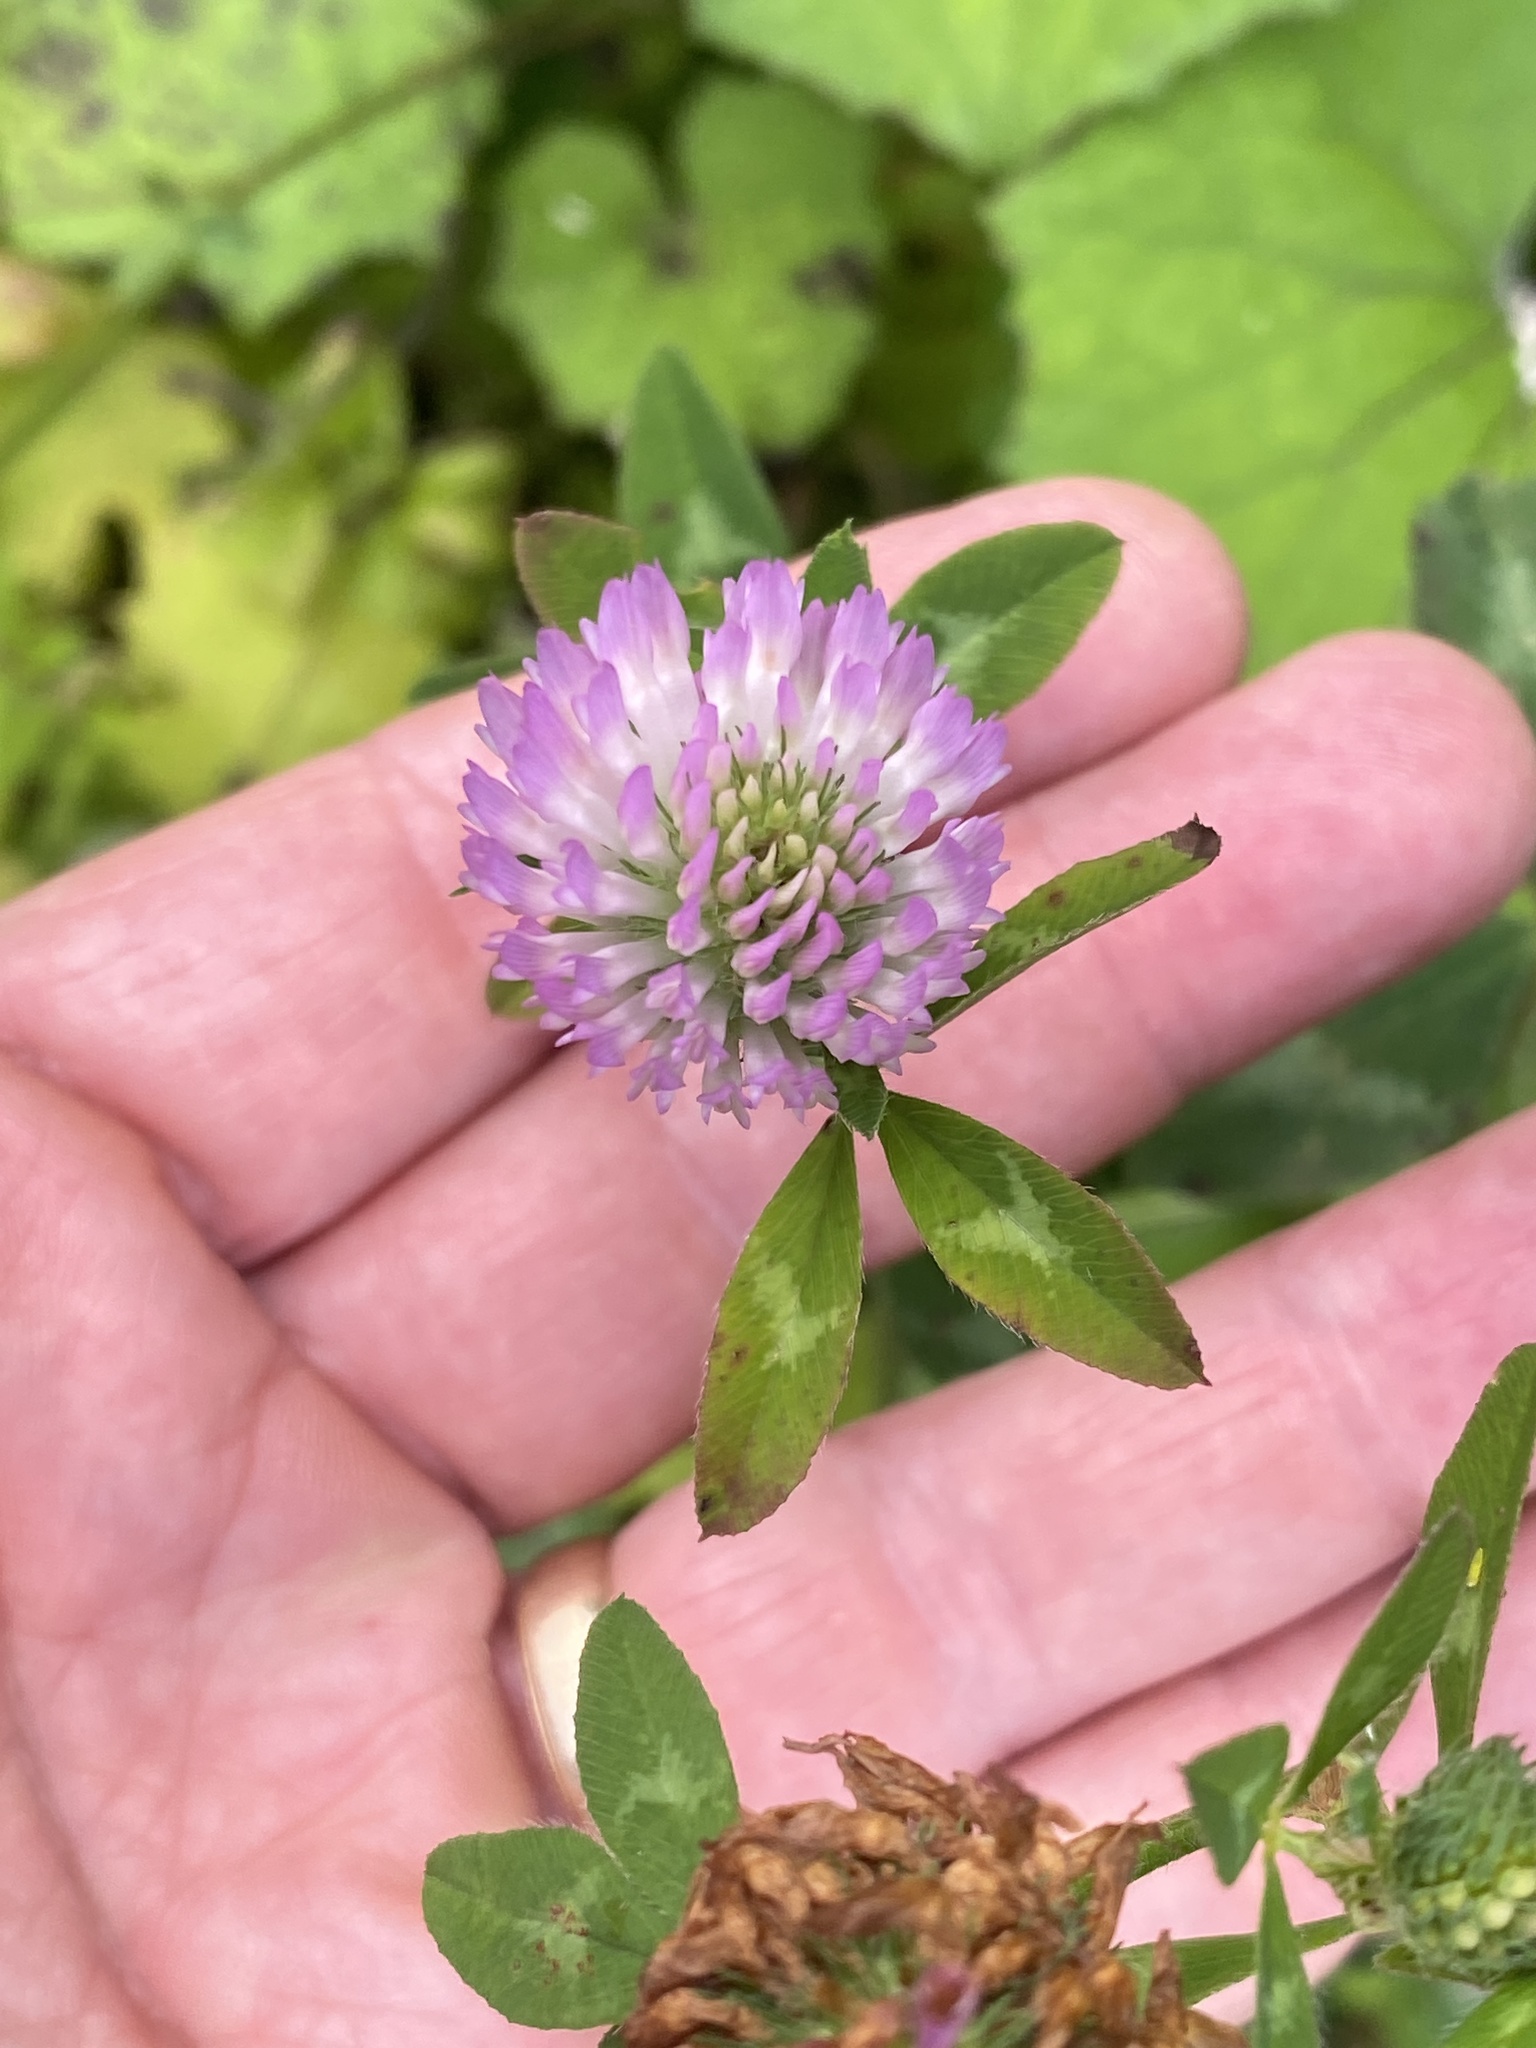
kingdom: Plantae
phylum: Tracheophyta
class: Magnoliopsida
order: Fabales
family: Fabaceae
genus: Trifolium
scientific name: Trifolium pratense
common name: Red clover
